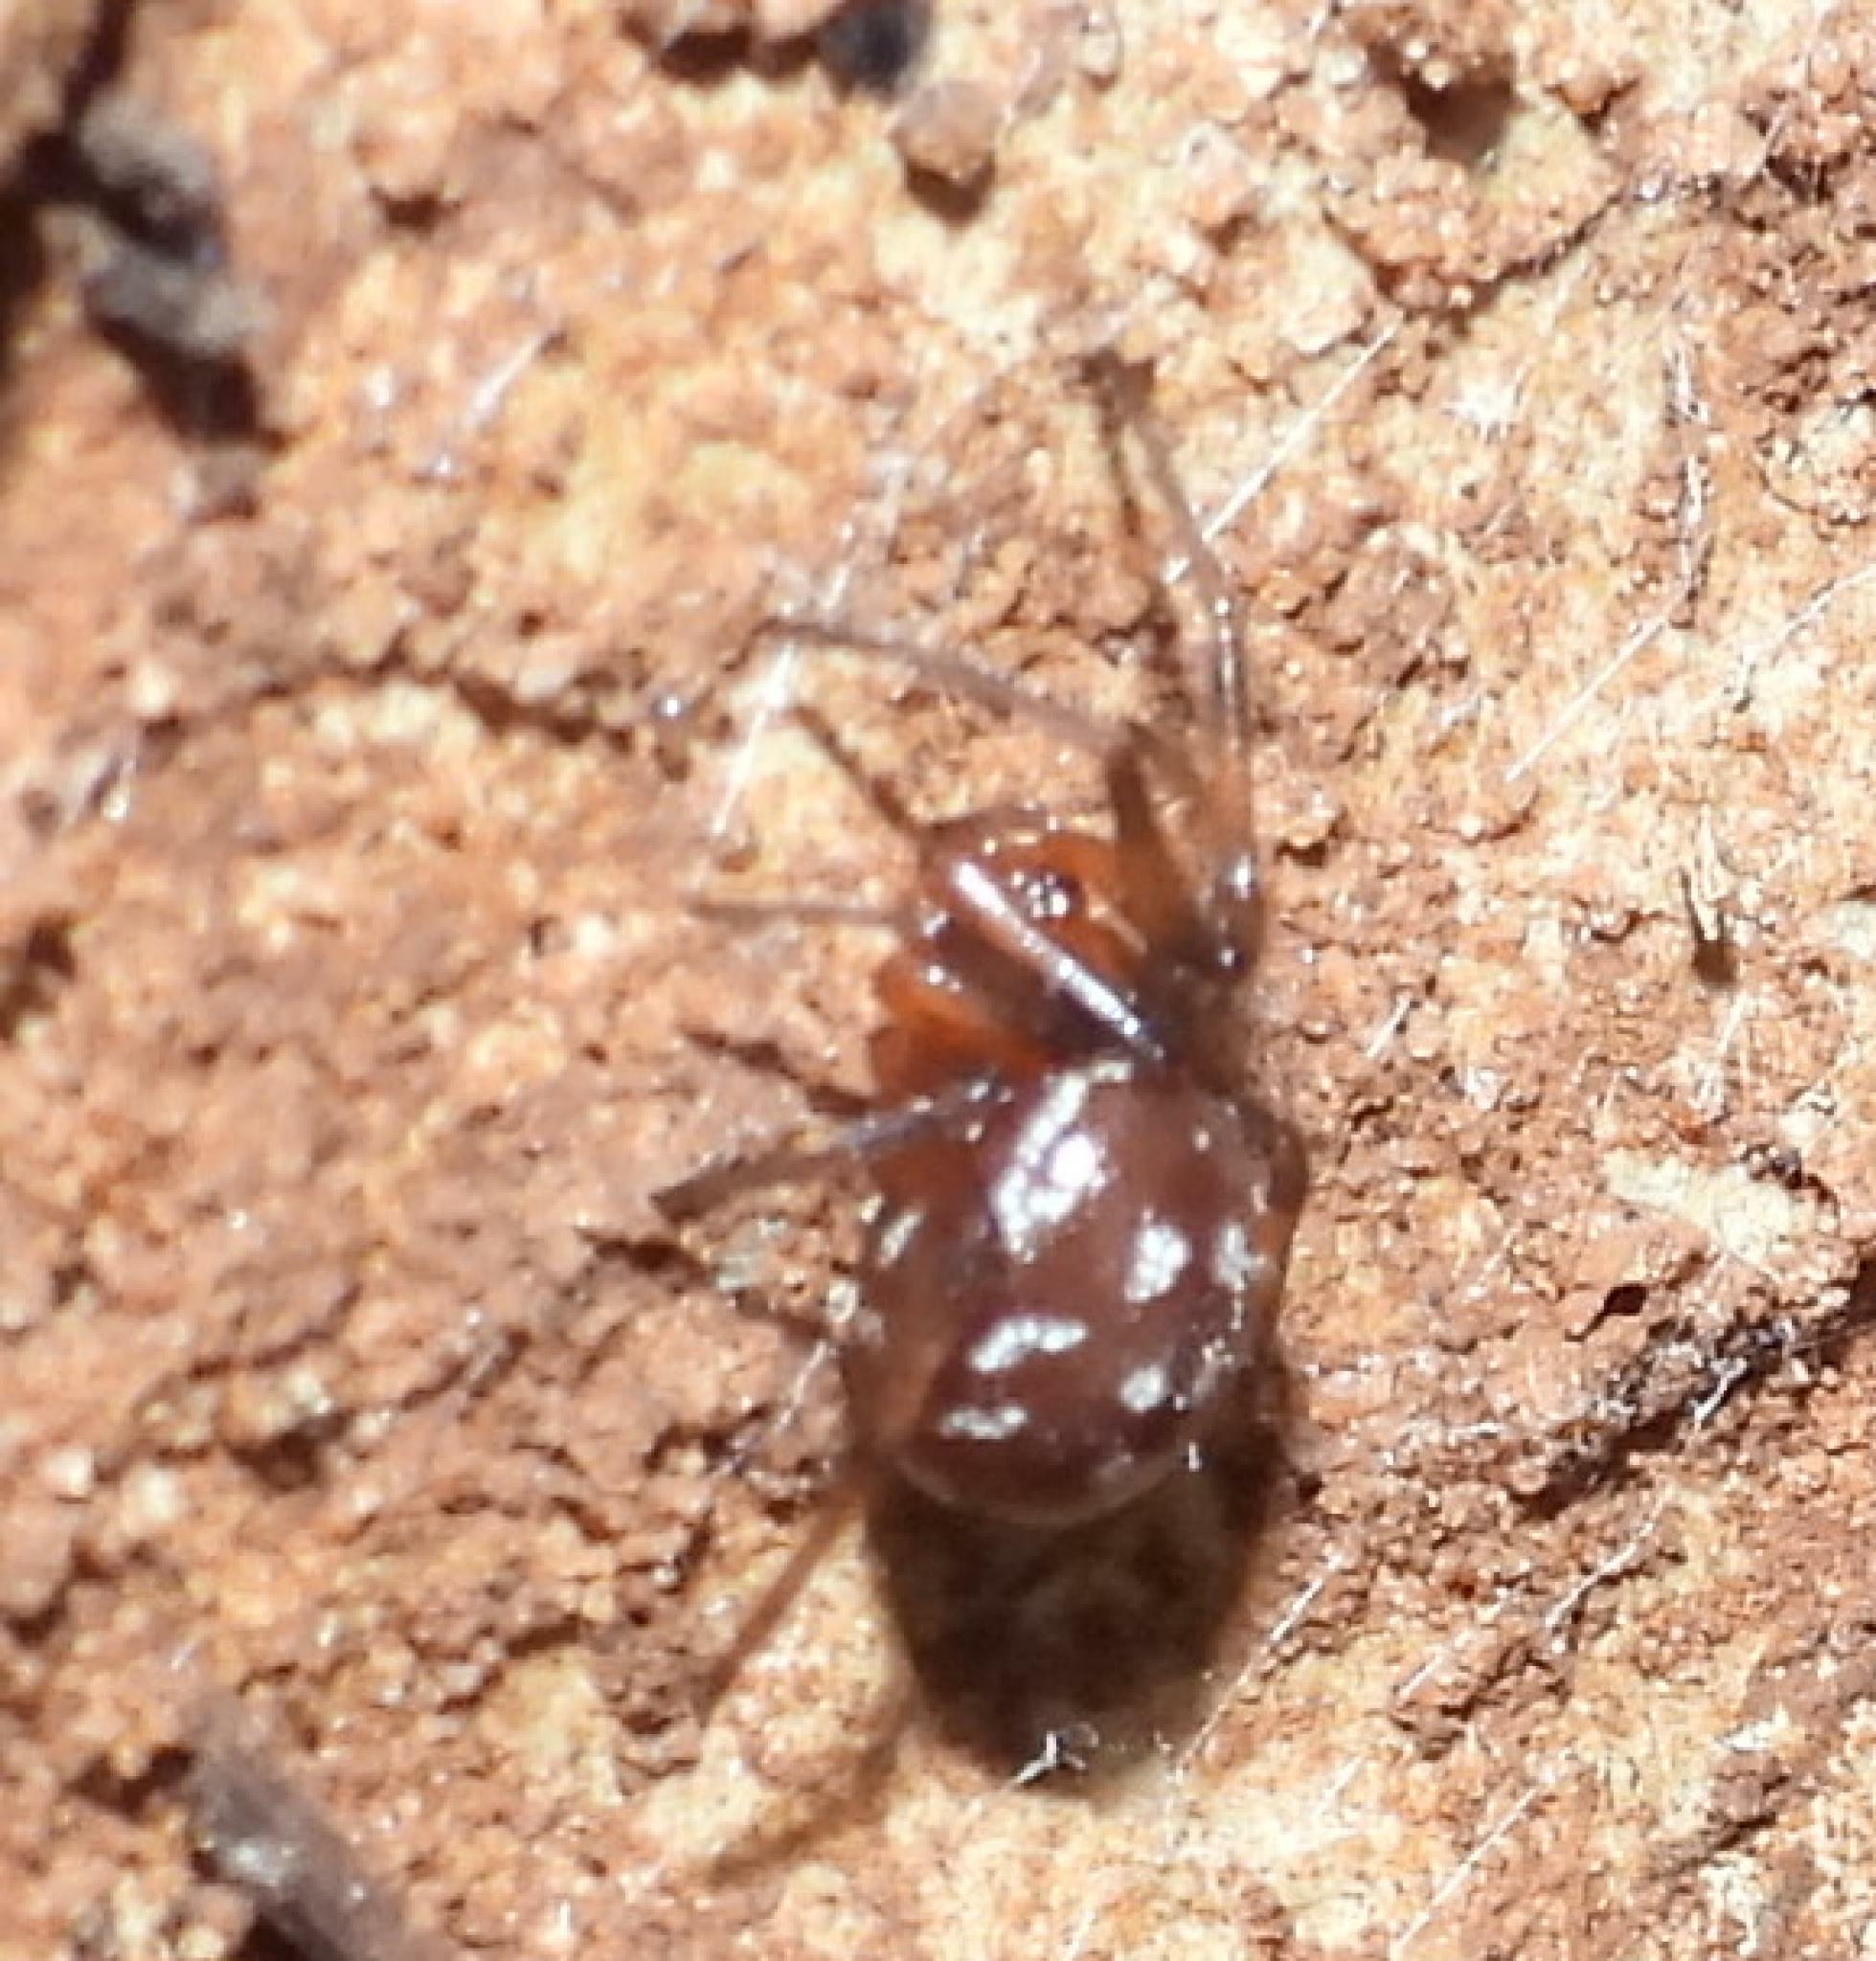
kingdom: Animalia
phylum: Arthropoda
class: Arachnida
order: Araneae
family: Theridiidae
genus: Steatoda
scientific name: Steatoda capensis
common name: Cobweb weaver
